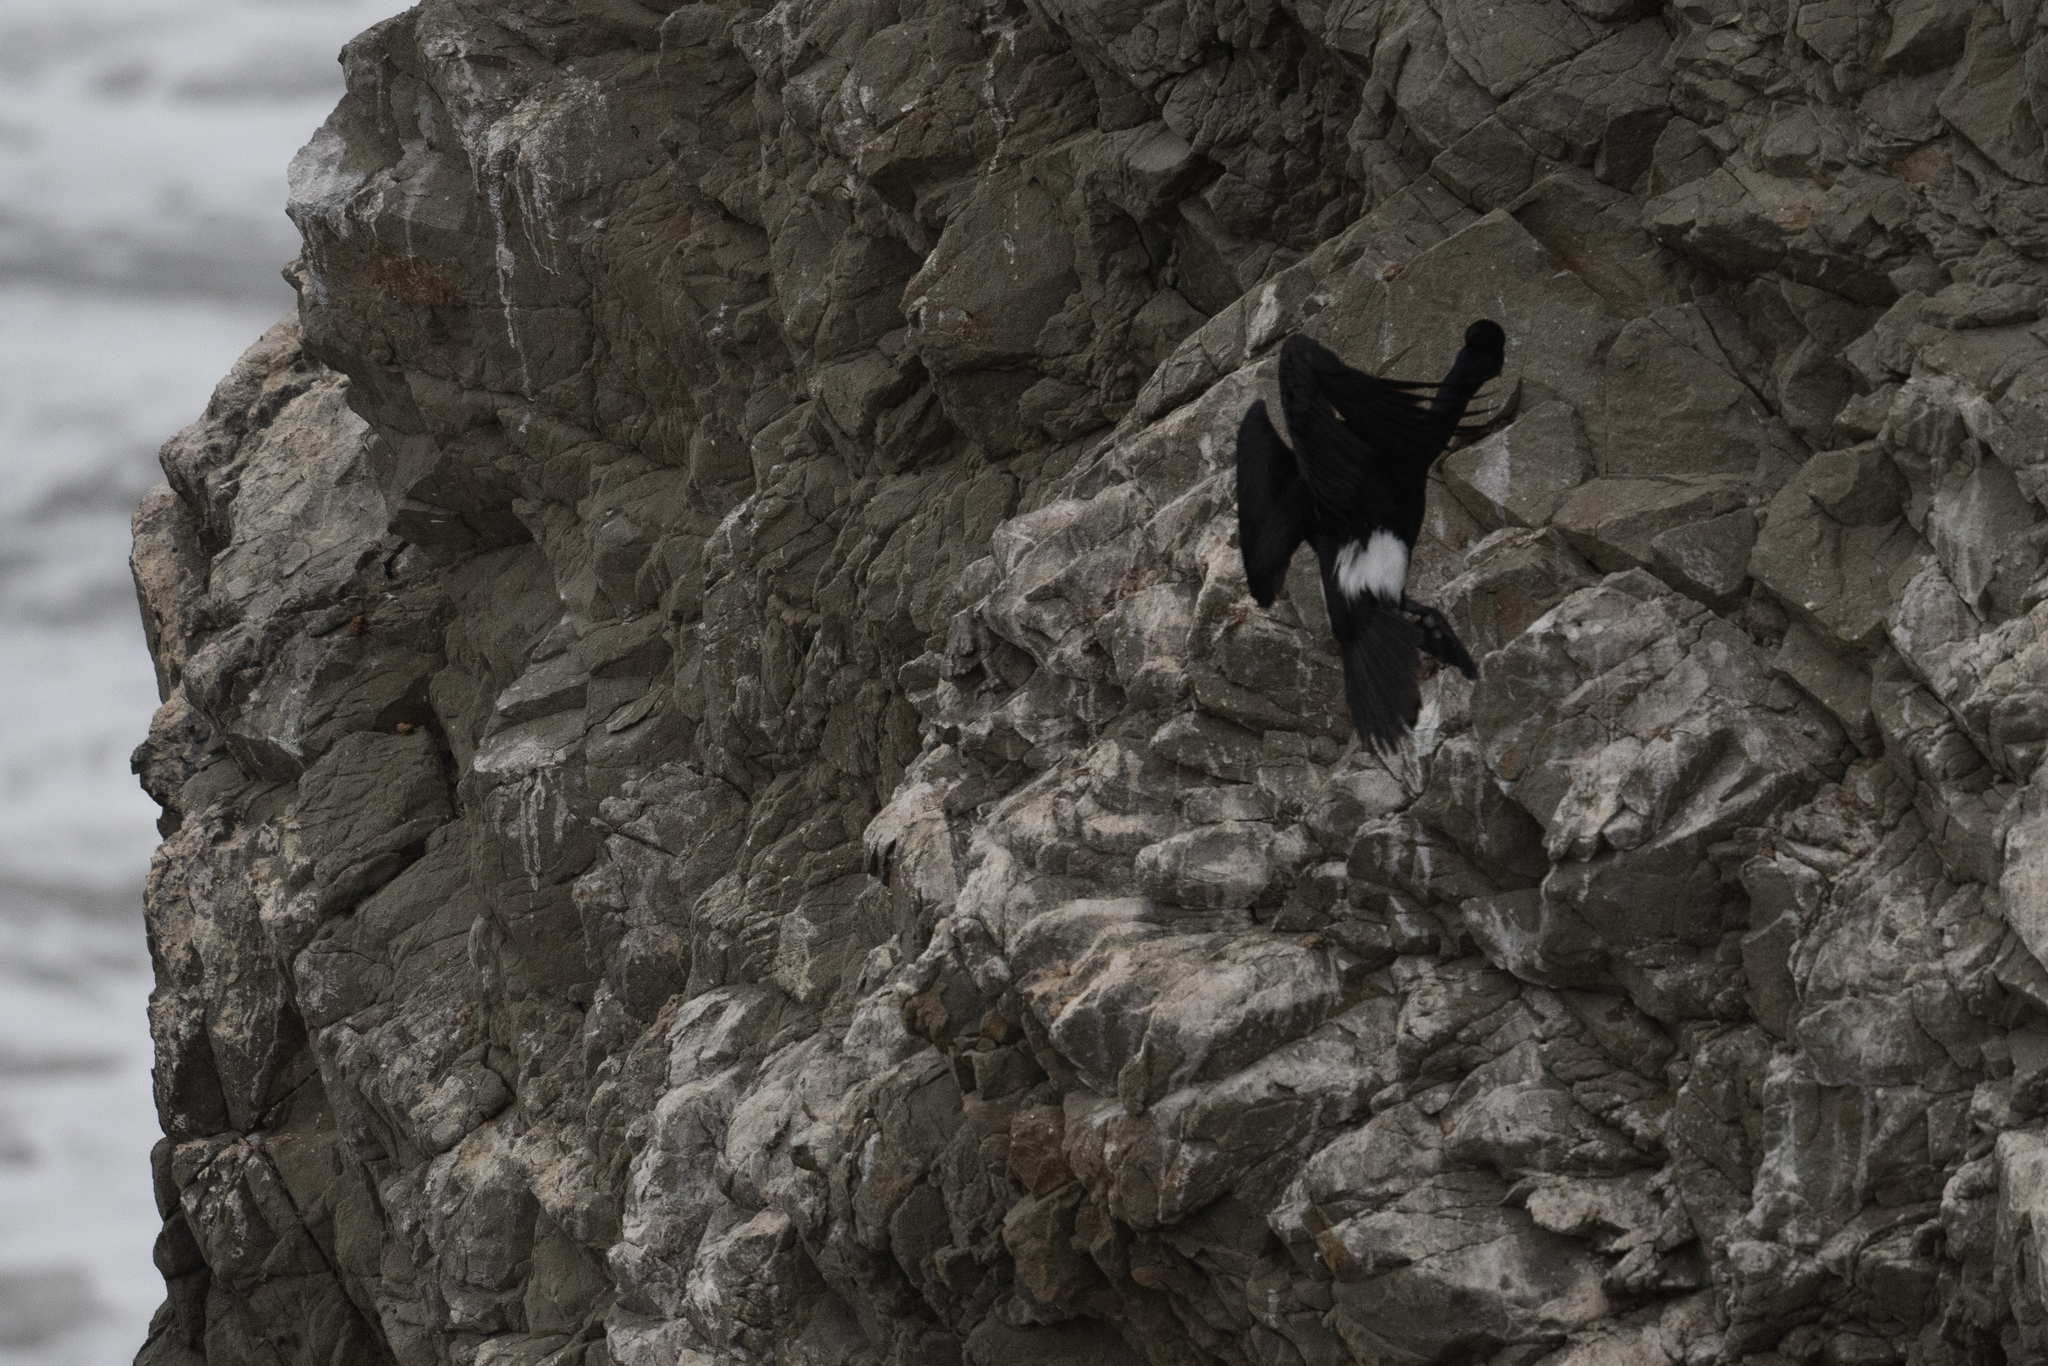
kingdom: Animalia
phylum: Chordata
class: Aves
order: Suliformes
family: Phalacrocoracidae
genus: Phalacrocorax
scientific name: Phalacrocorax pelagicus
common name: Pelagic cormorant
